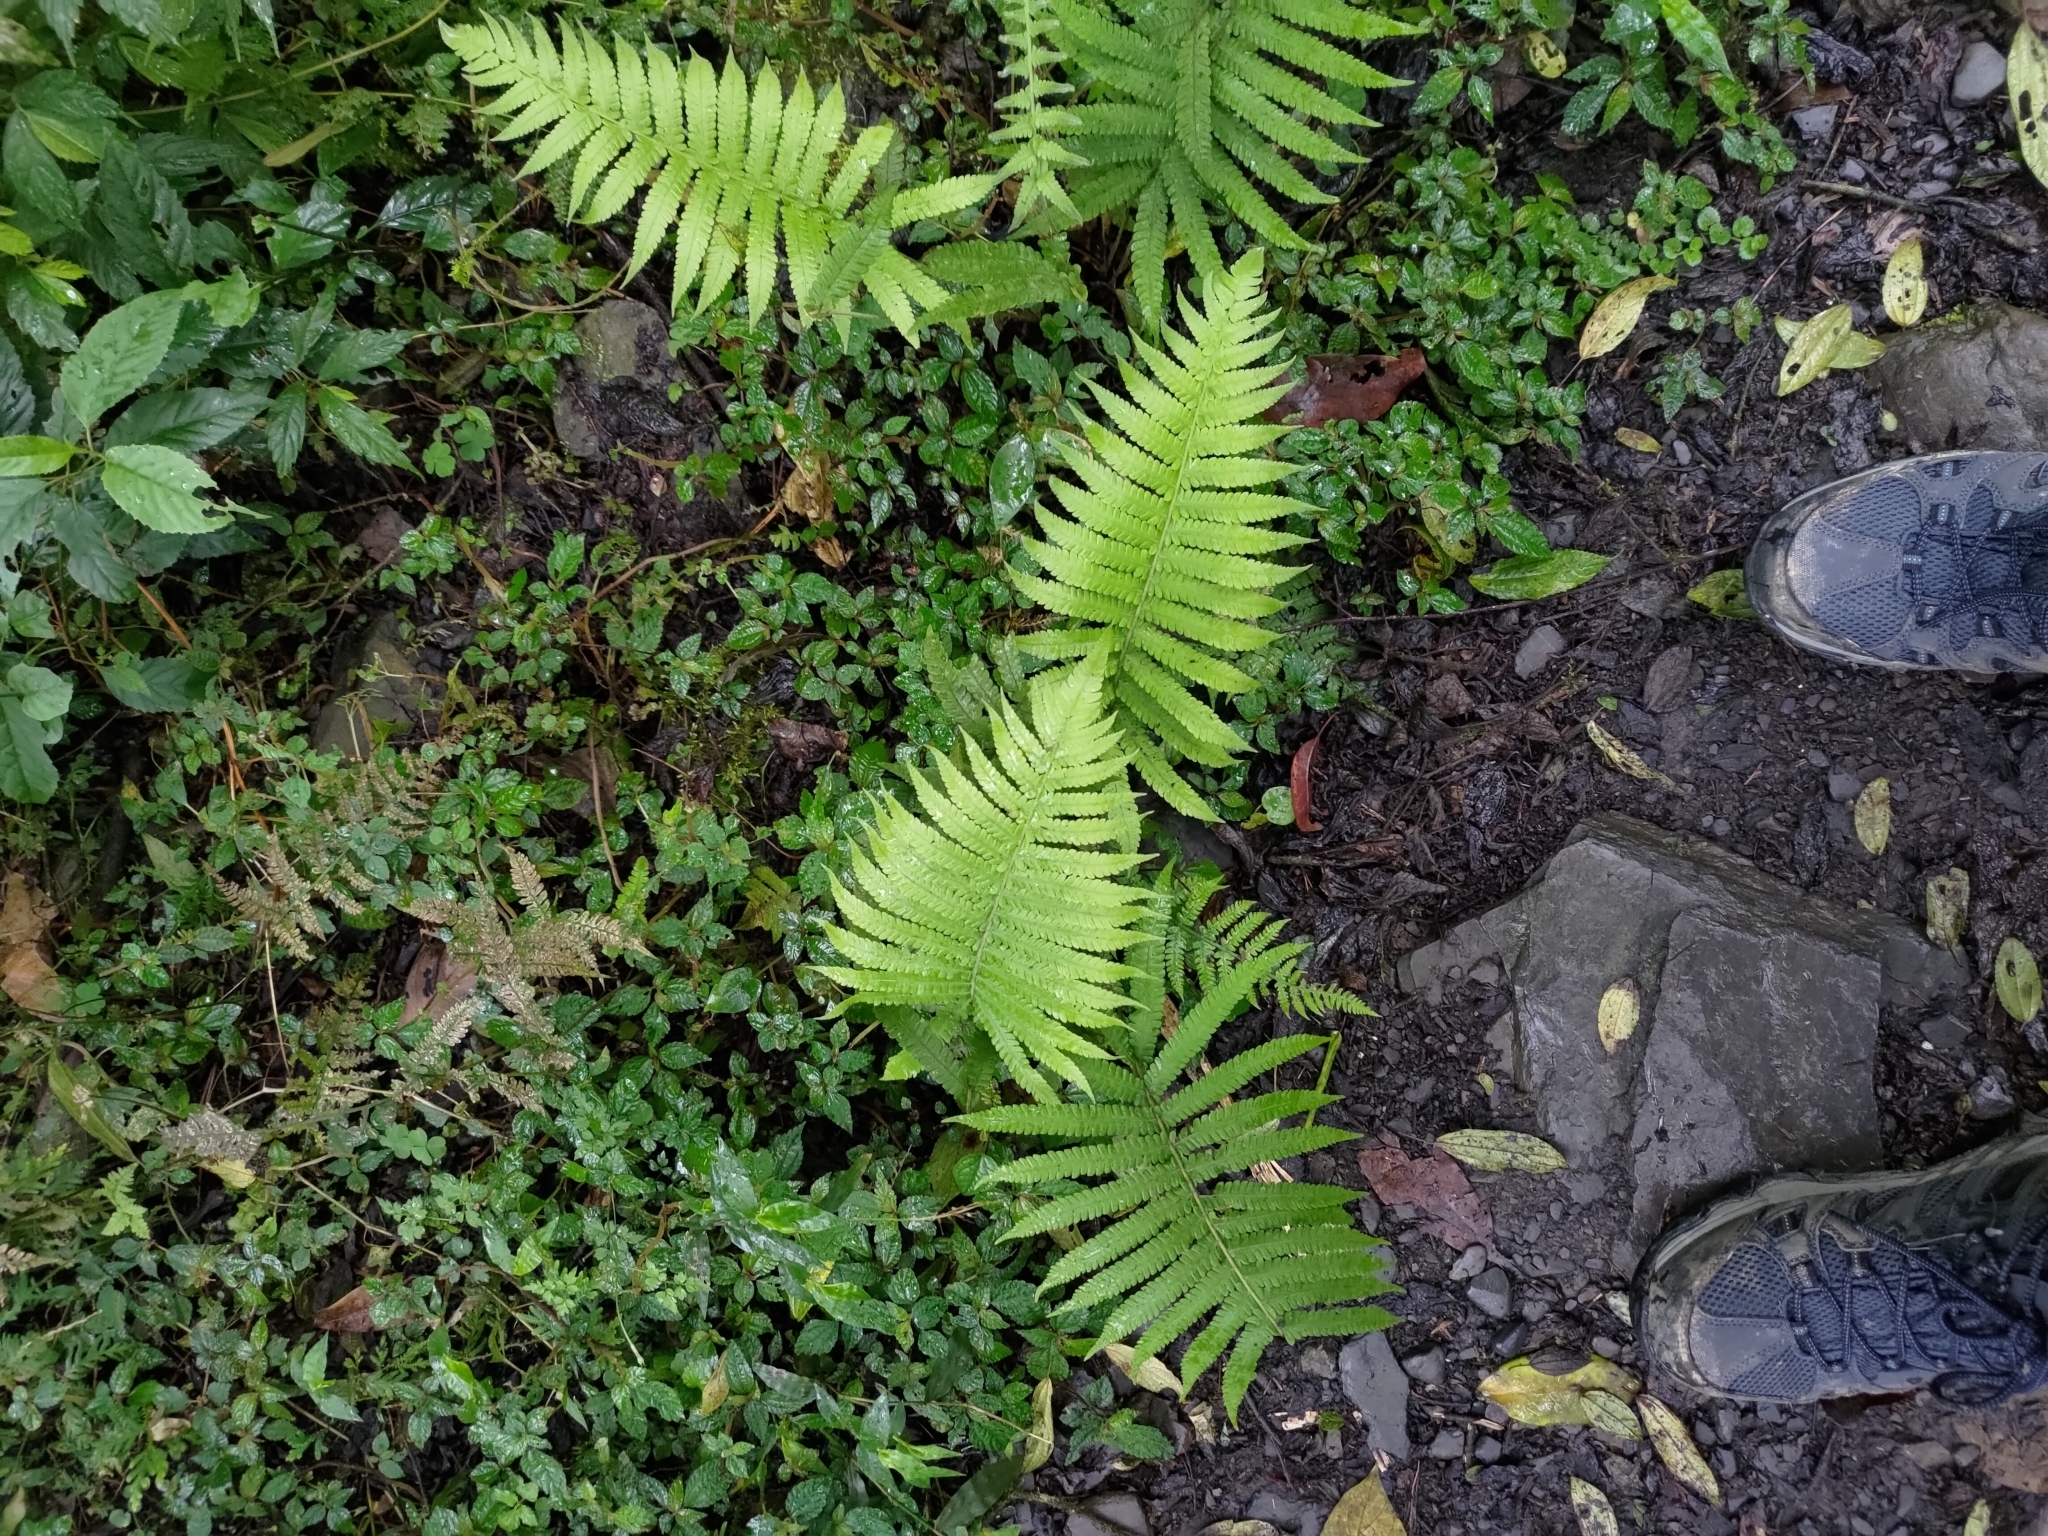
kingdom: Plantae
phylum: Tracheophyta
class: Polypodiopsida
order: Polypodiales
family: Thelypteridaceae
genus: Christella
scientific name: Christella parasitica
